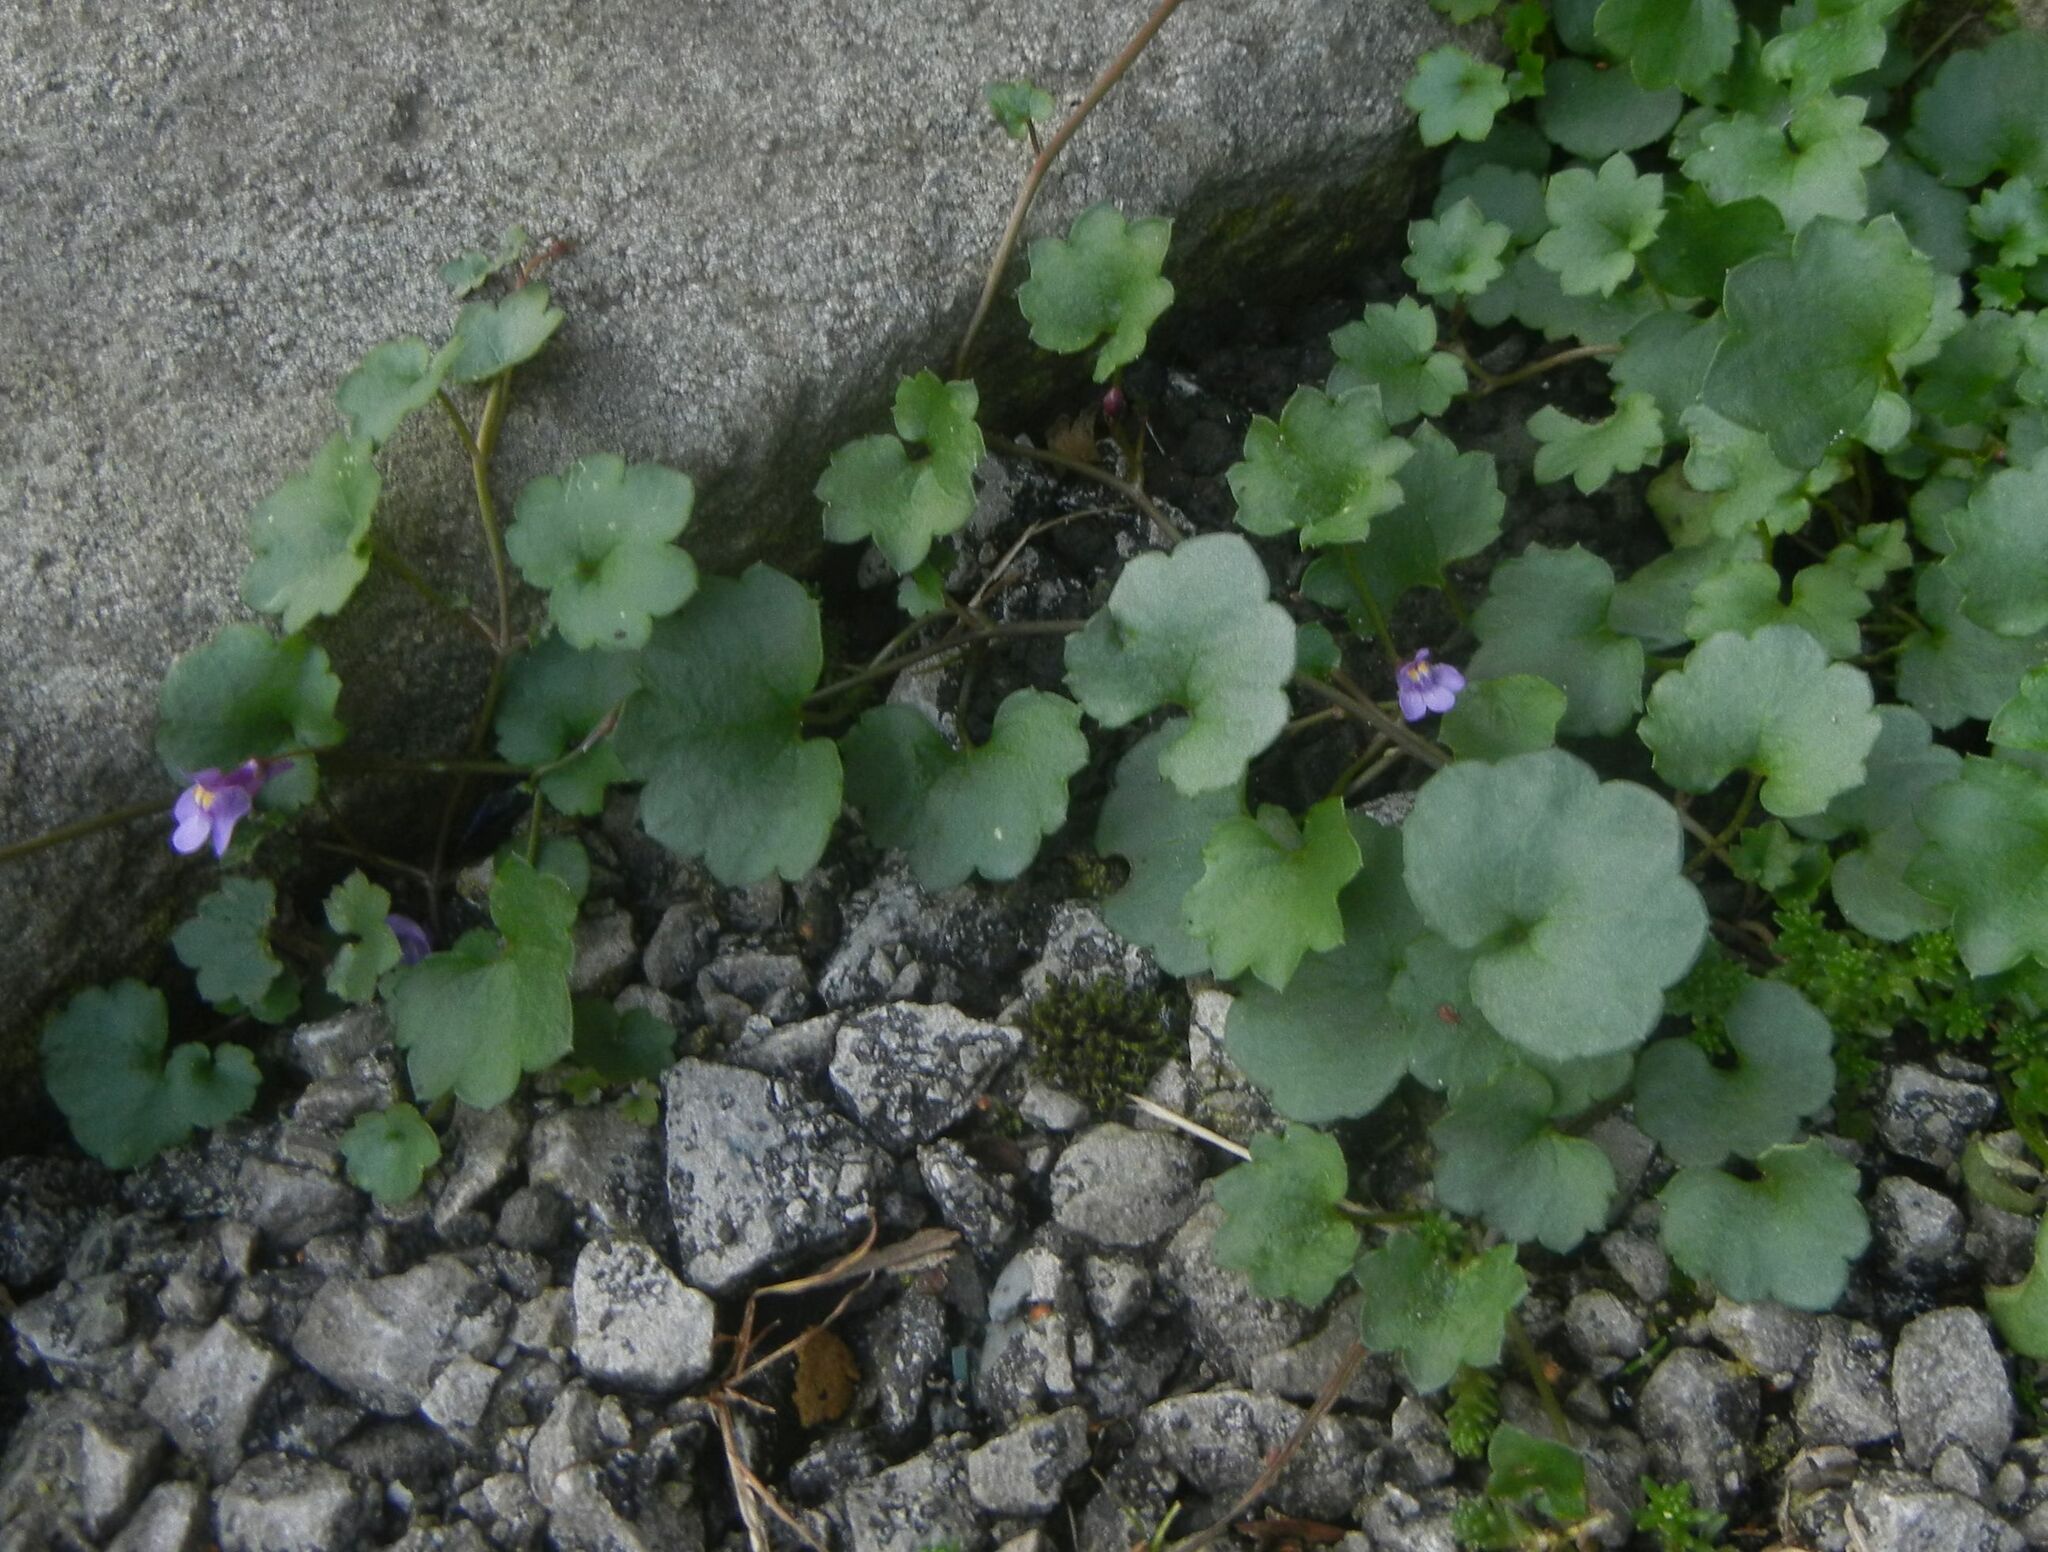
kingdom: Plantae
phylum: Tracheophyta
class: Magnoliopsida
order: Lamiales
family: Plantaginaceae
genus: Cymbalaria
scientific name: Cymbalaria muralis
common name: Ivy-leaved toadflax
